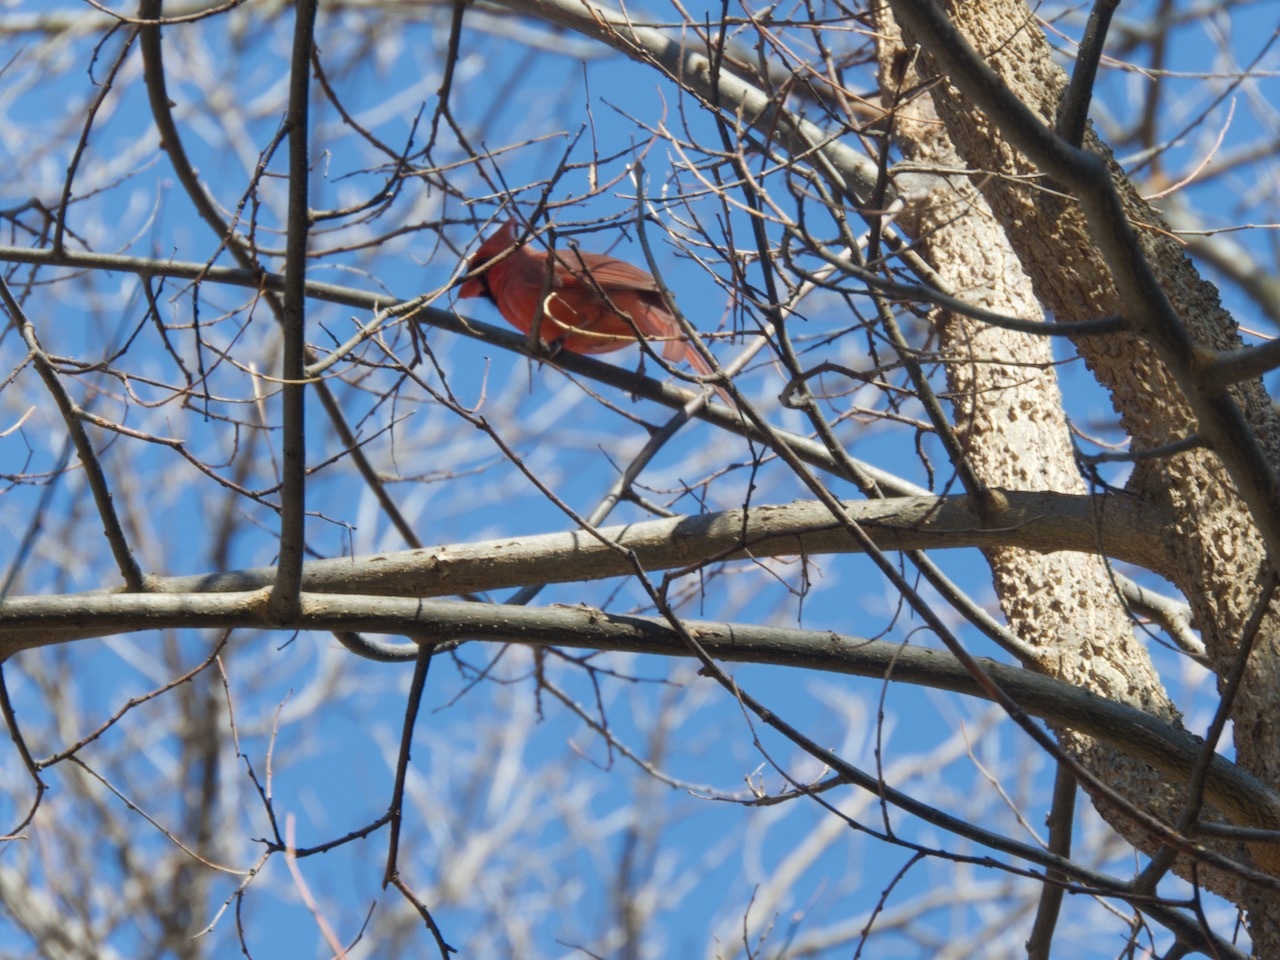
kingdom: Animalia
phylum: Chordata
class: Aves
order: Passeriformes
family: Cardinalidae
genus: Cardinalis
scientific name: Cardinalis cardinalis
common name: Northern cardinal
